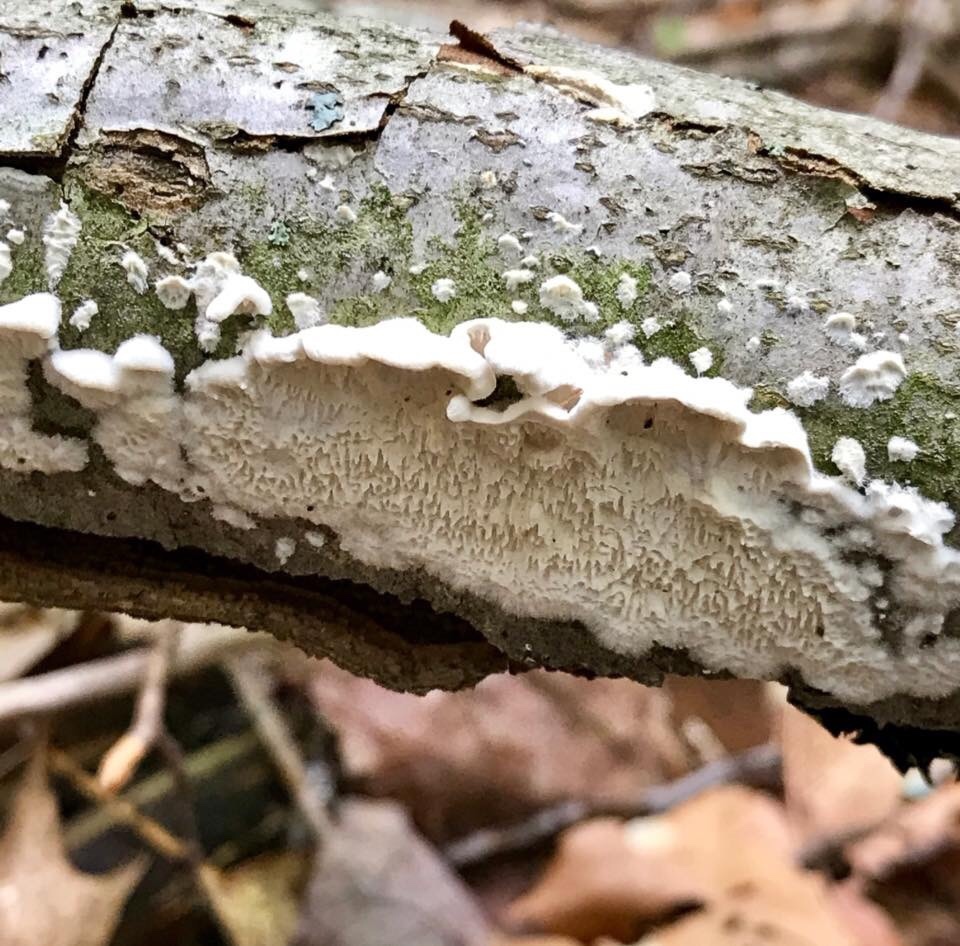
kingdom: Fungi
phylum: Basidiomycota
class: Agaricomycetes
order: Polyporales
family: Irpicaceae
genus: Irpex
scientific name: Irpex lacteus
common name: Milk-white toothed polypore
